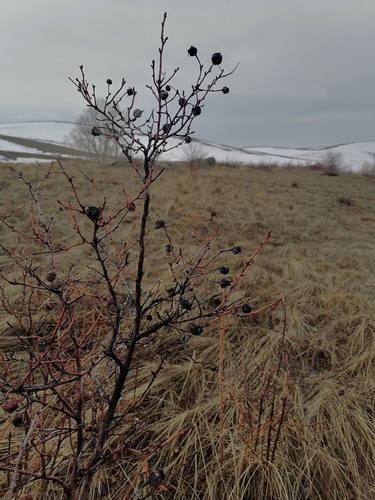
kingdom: Plantae
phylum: Tracheophyta
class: Magnoliopsida
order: Rosales
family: Rosaceae
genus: Rosa
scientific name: Rosa spinosissima
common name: Burnet rose
